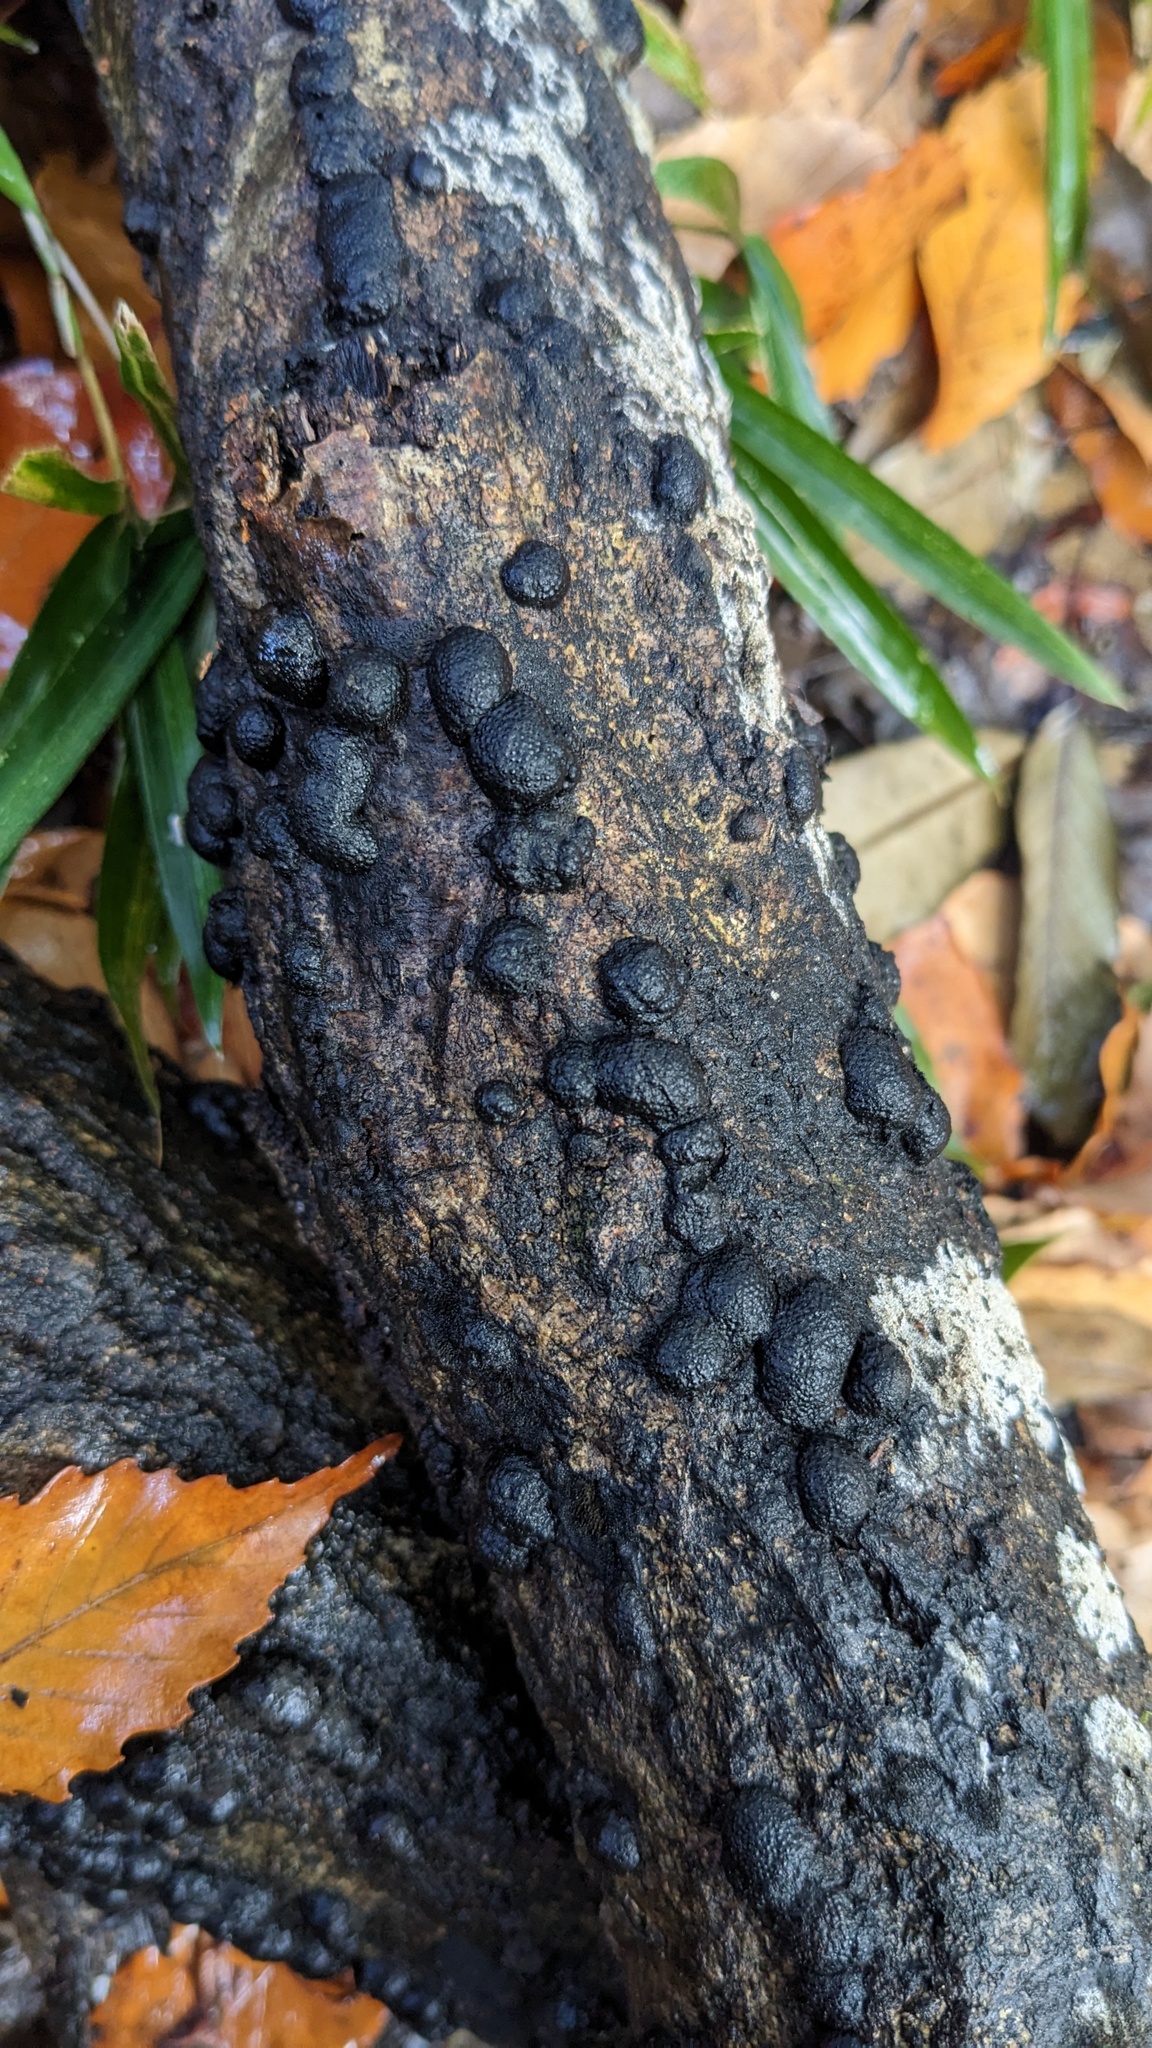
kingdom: Fungi
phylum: Ascomycota
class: Sordariomycetes
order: Xylariales
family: Hypoxylaceae
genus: Annulohypoxylon
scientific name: Annulohypoxylon truncatum
